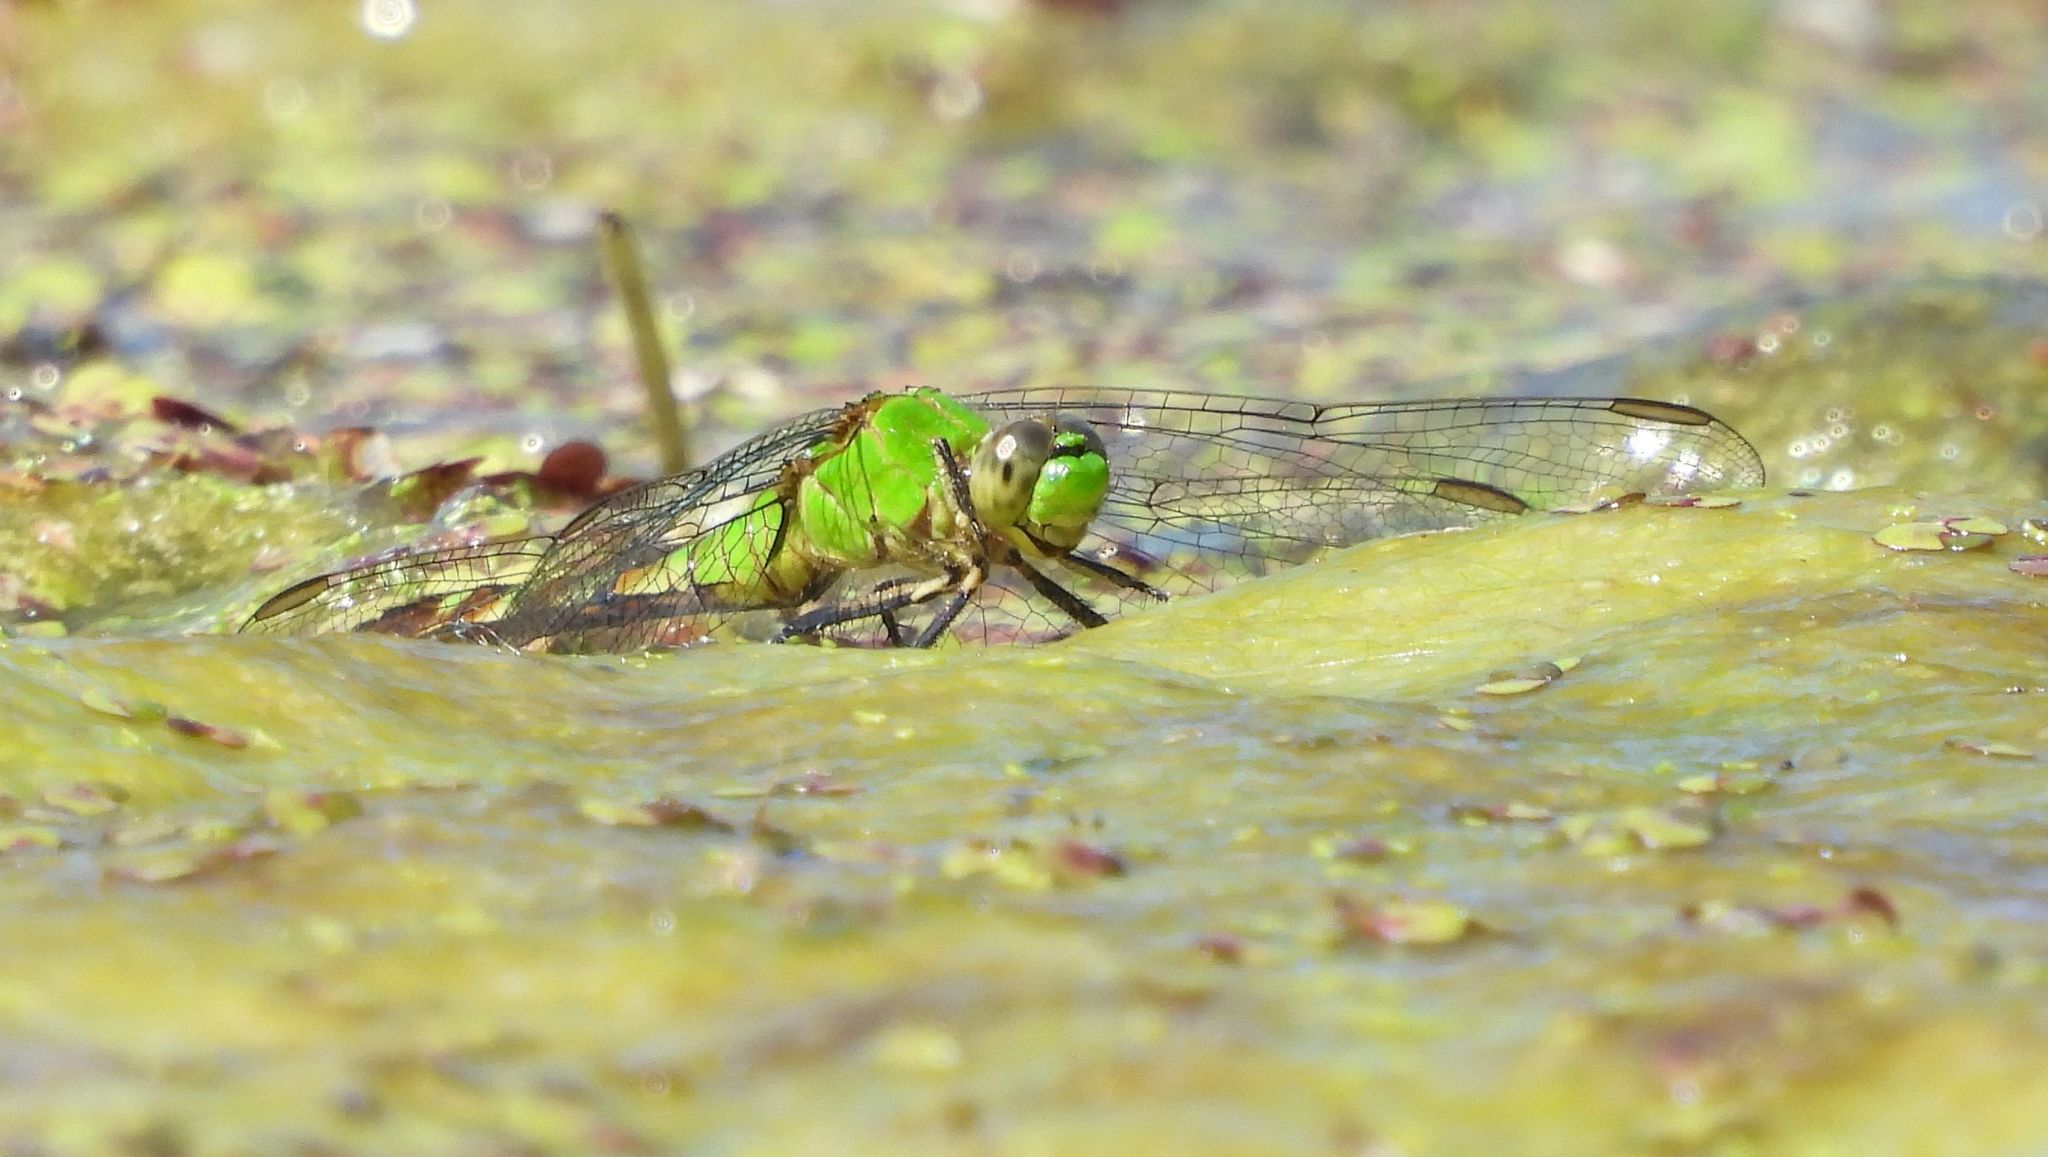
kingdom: Animalia
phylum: Arthropoda
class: Insecta
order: Odonata
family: Libellulidae
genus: Erythemis
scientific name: Erythemis simplicicollis
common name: Eastern pondhawk
